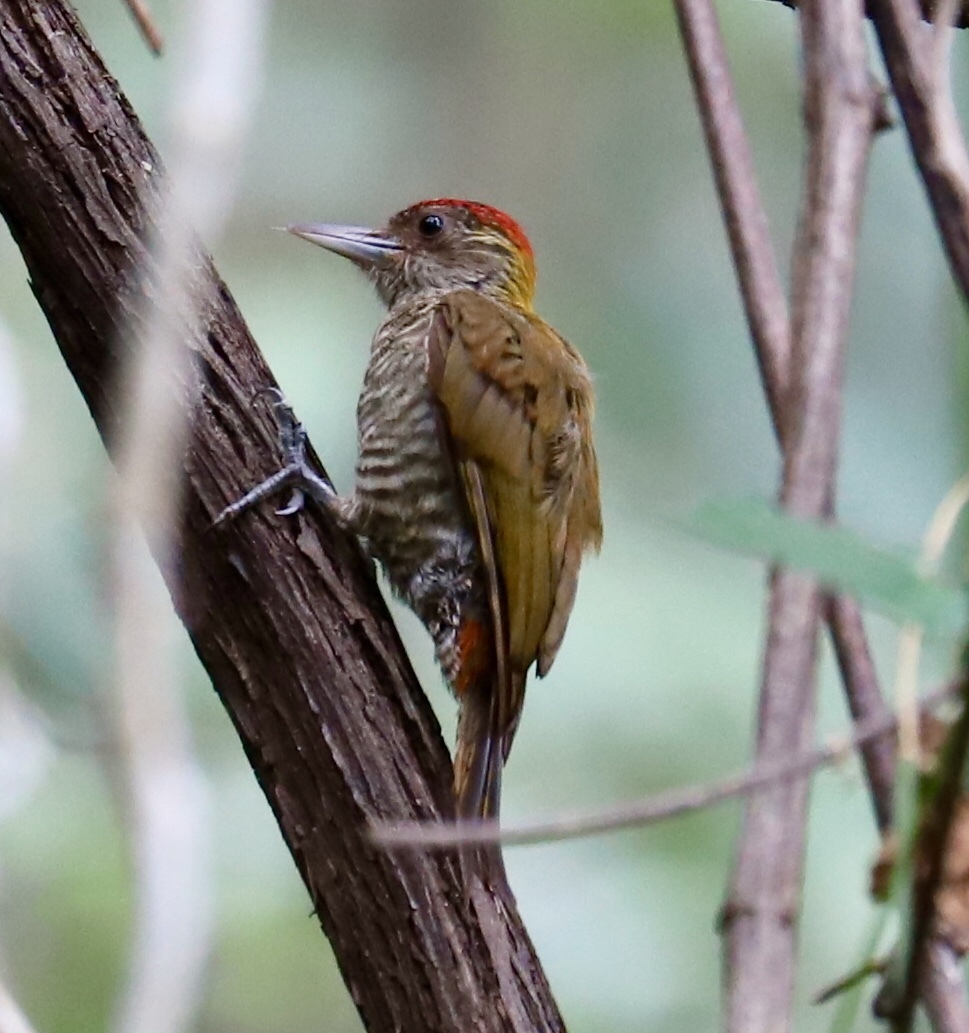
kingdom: Animalia
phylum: Chordata
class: Aves
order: Piciformes
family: Picidae
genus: Veniliornis
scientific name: Veniliornis kirkii
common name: Red-rumped woodpecker
